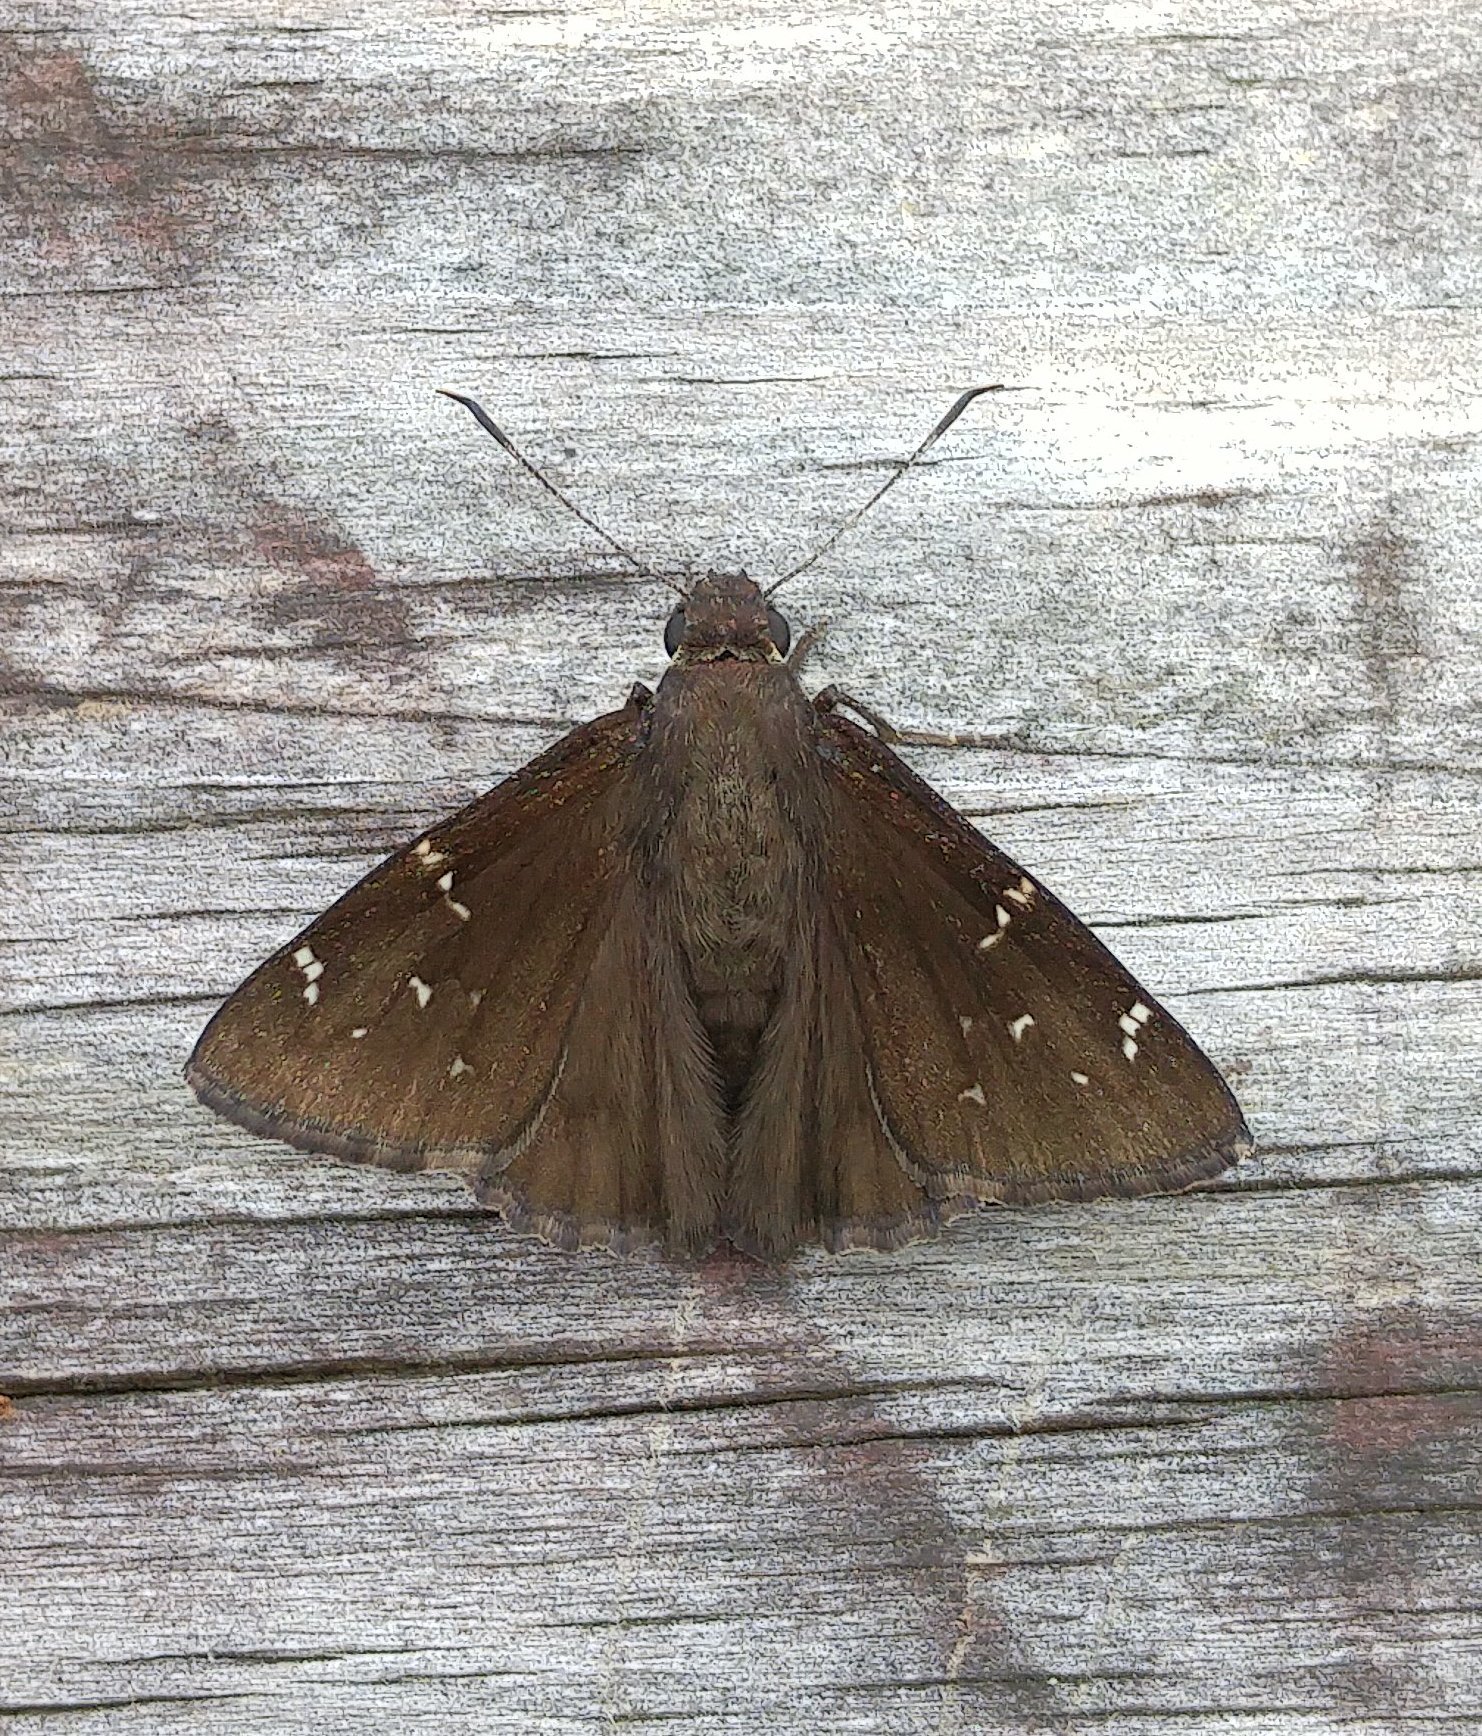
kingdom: Animalia
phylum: Arthropoda
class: Insecta
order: Lepidoptera
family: Hesperiidae
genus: Thorybes
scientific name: Thorybes pylades
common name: Northern cloudywing
